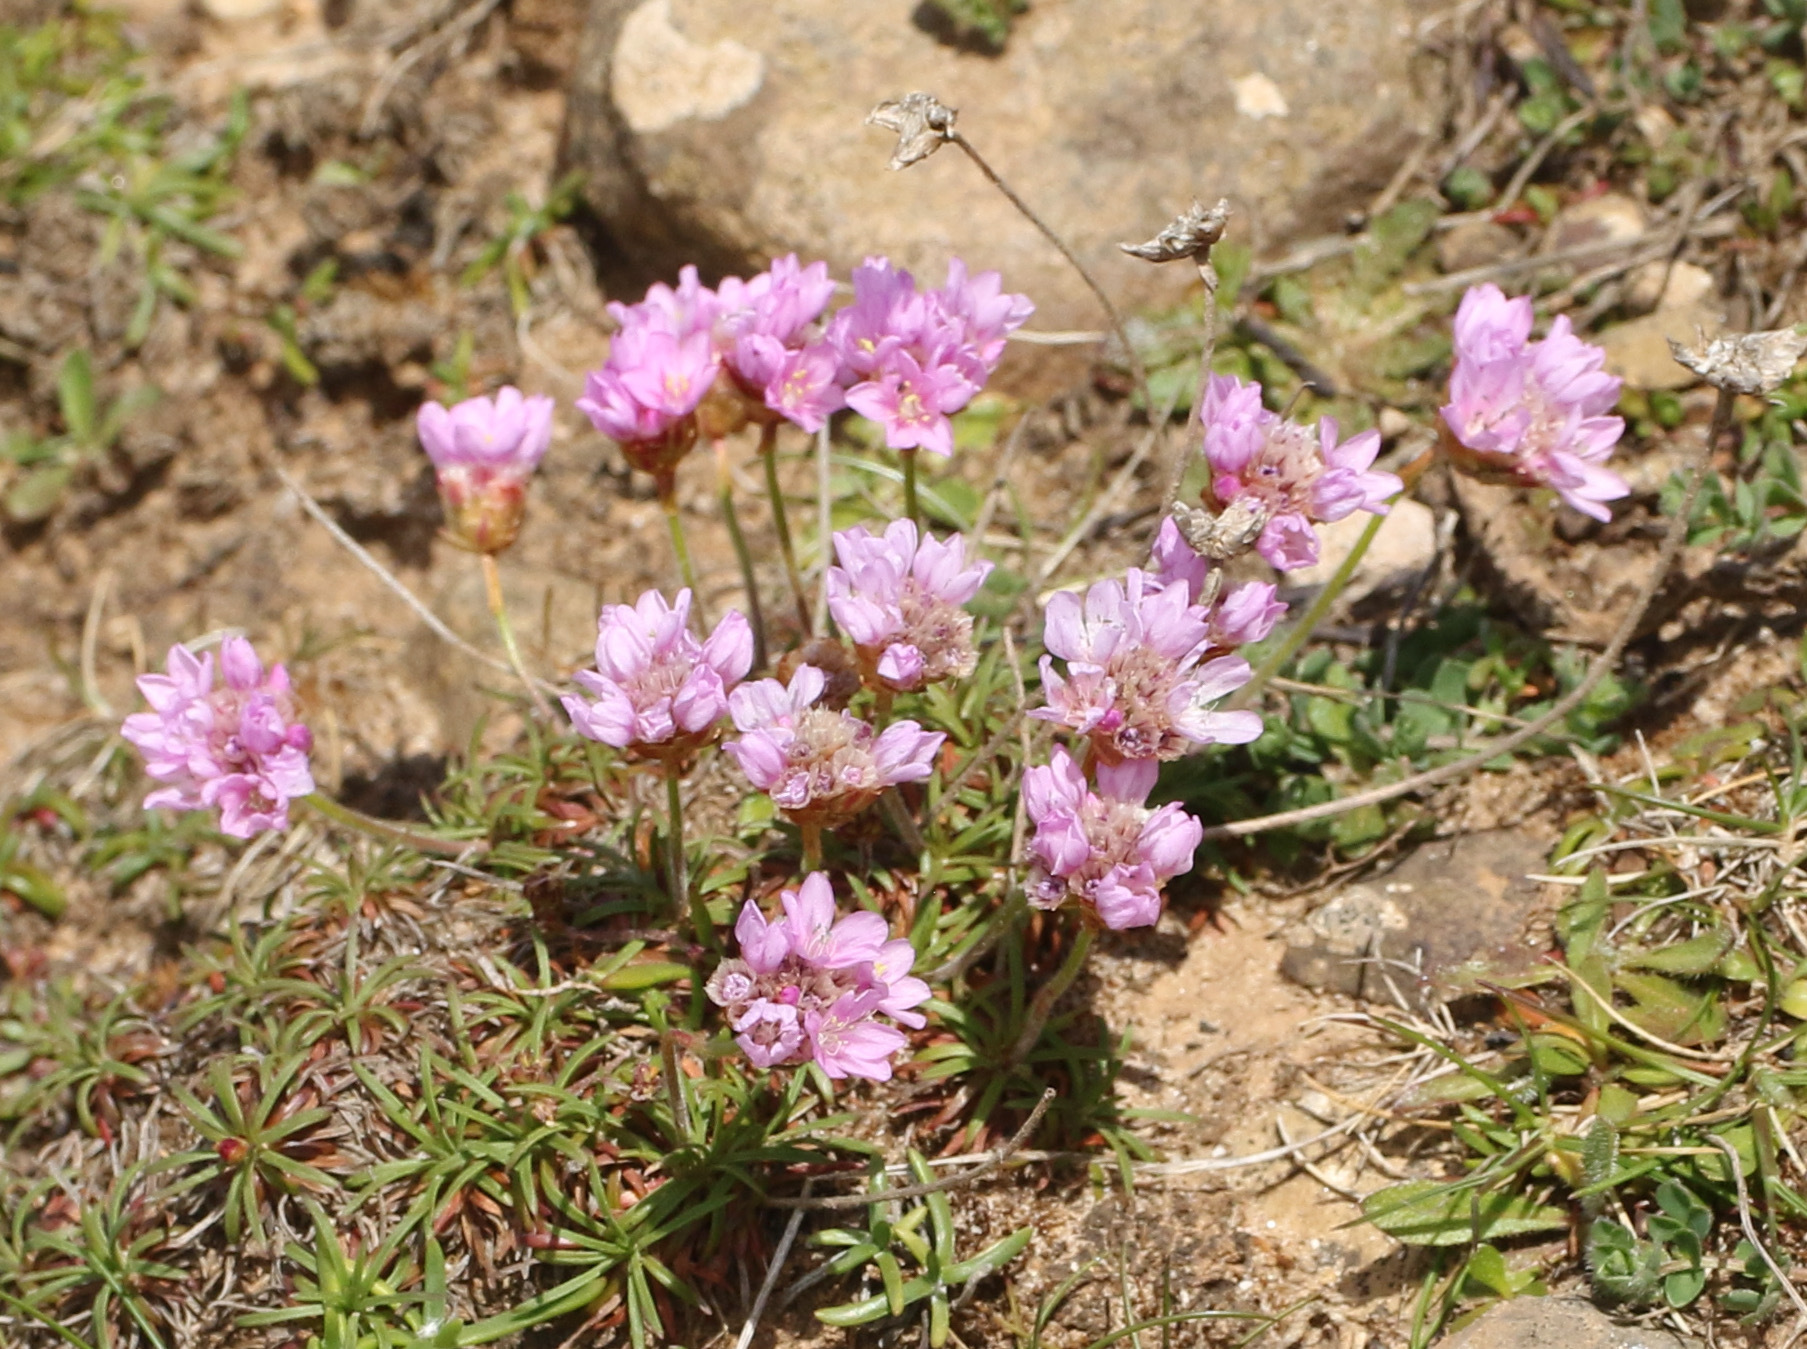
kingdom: Plantae
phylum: Tracheophyta
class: Magnoliopsida
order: Caryophyllales
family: Plumbaginaceae
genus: Armeria
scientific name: Armeria maritima
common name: Thrift
